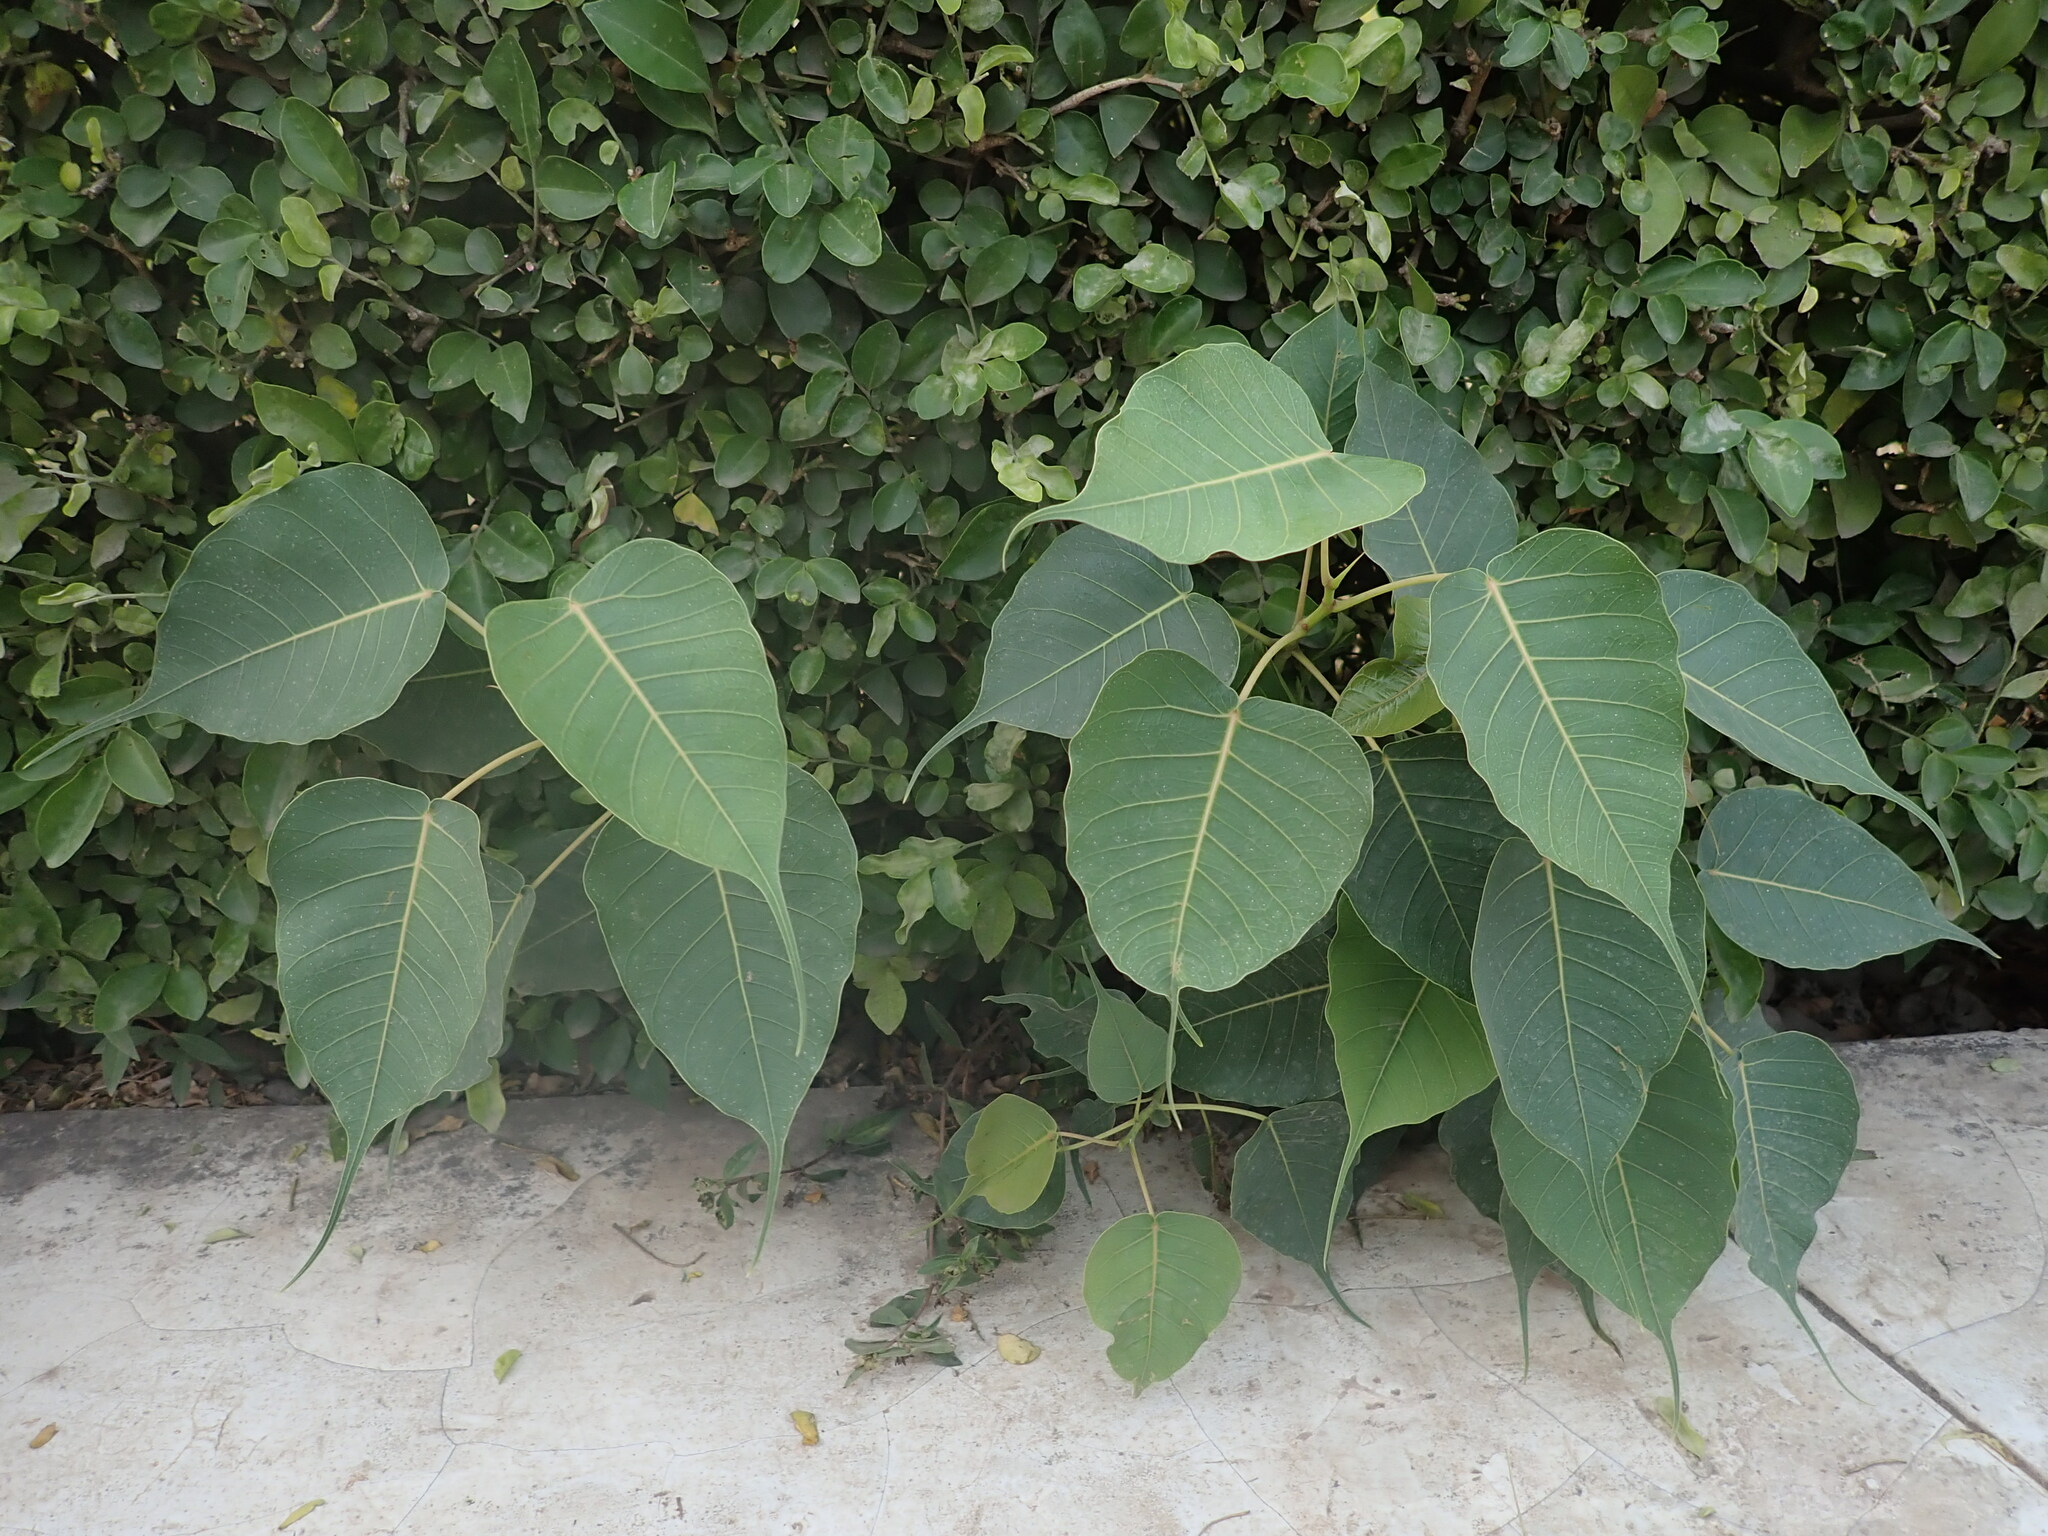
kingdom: Plantae
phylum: Tracheophyta
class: Magnoliopsida
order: Rosales
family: Moraceae
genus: Ficus
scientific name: Ficus religiosa
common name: Bodhi tree
